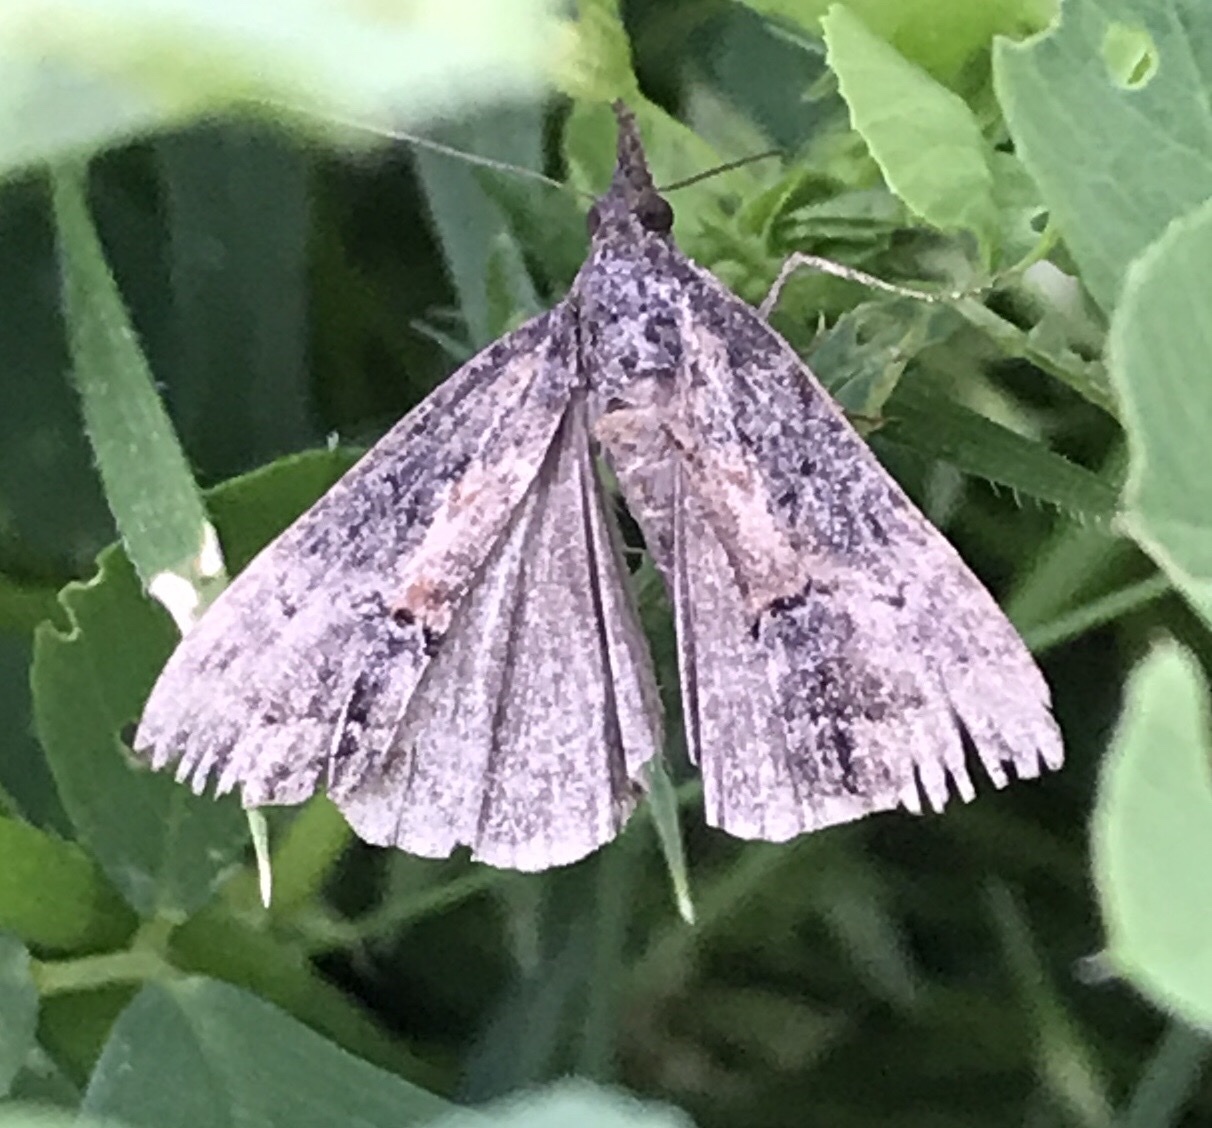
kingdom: Animalia
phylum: Arthropoda
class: Insecta
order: Lepidoptera
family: Erebidae
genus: Hypena
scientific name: Hypena scabra
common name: Green cloverworm
